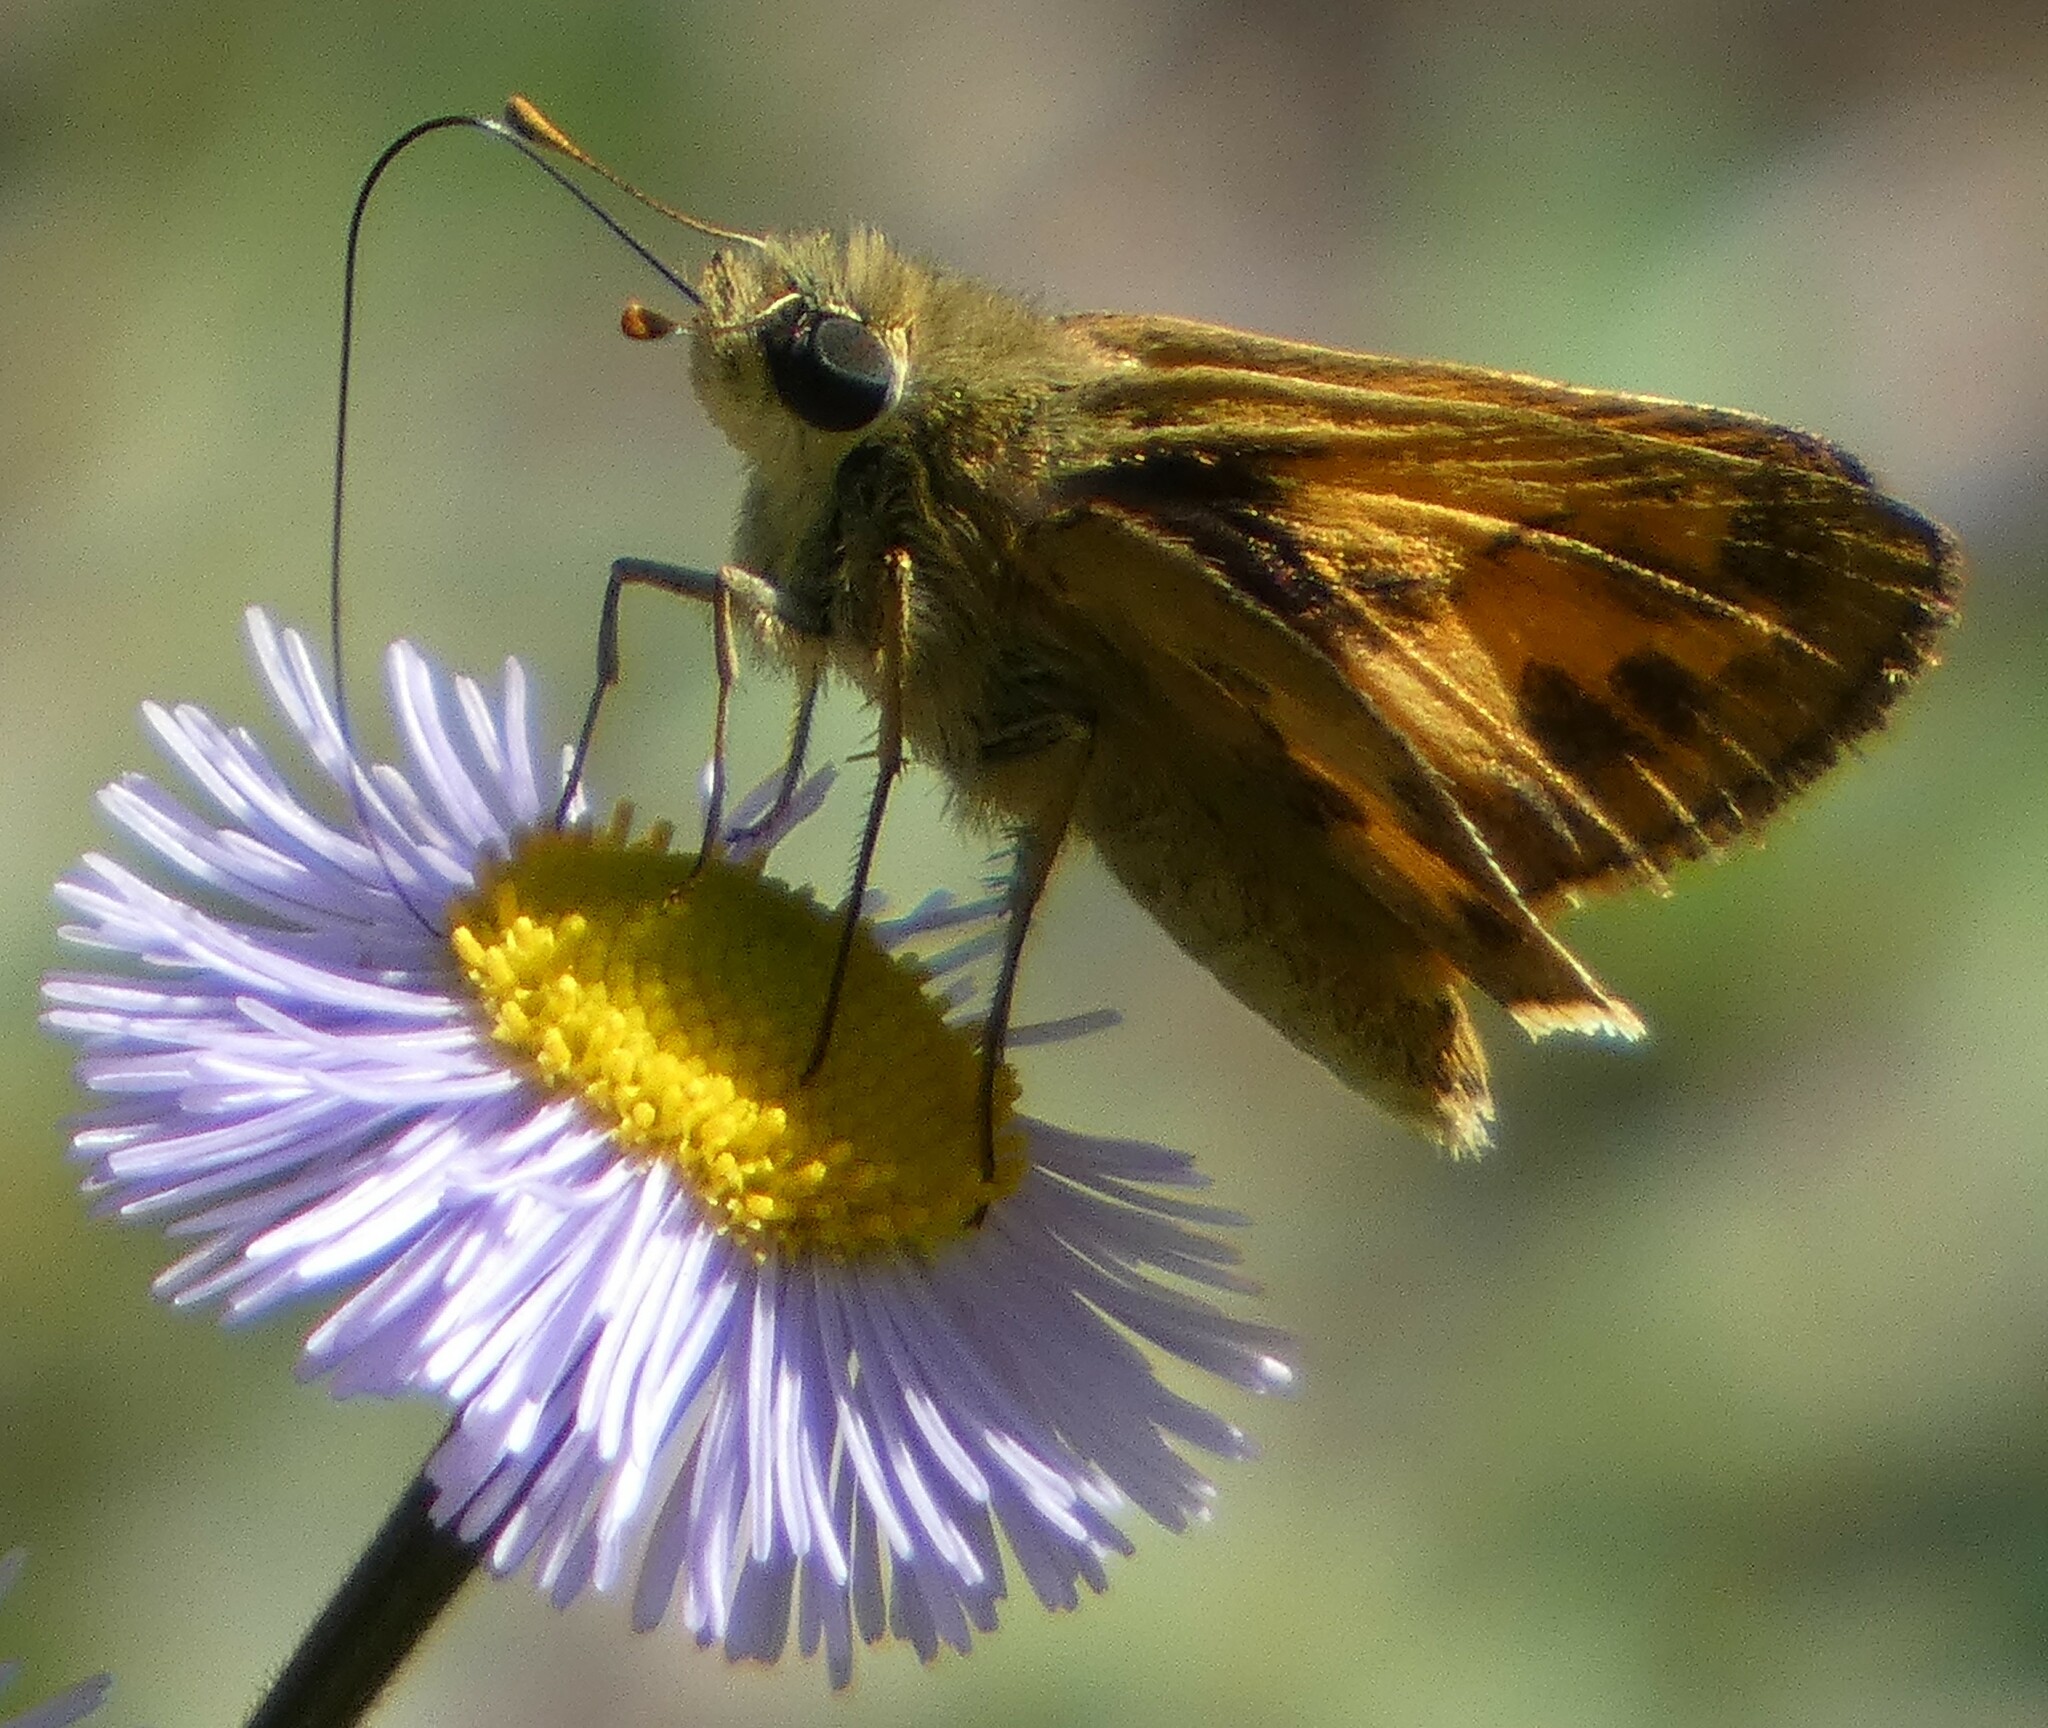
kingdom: Animalia
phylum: Arthropoda
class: Insecta
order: Lepidoptera
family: Hesperiidae
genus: Polites
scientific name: Polites vibex
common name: Whirlabout
